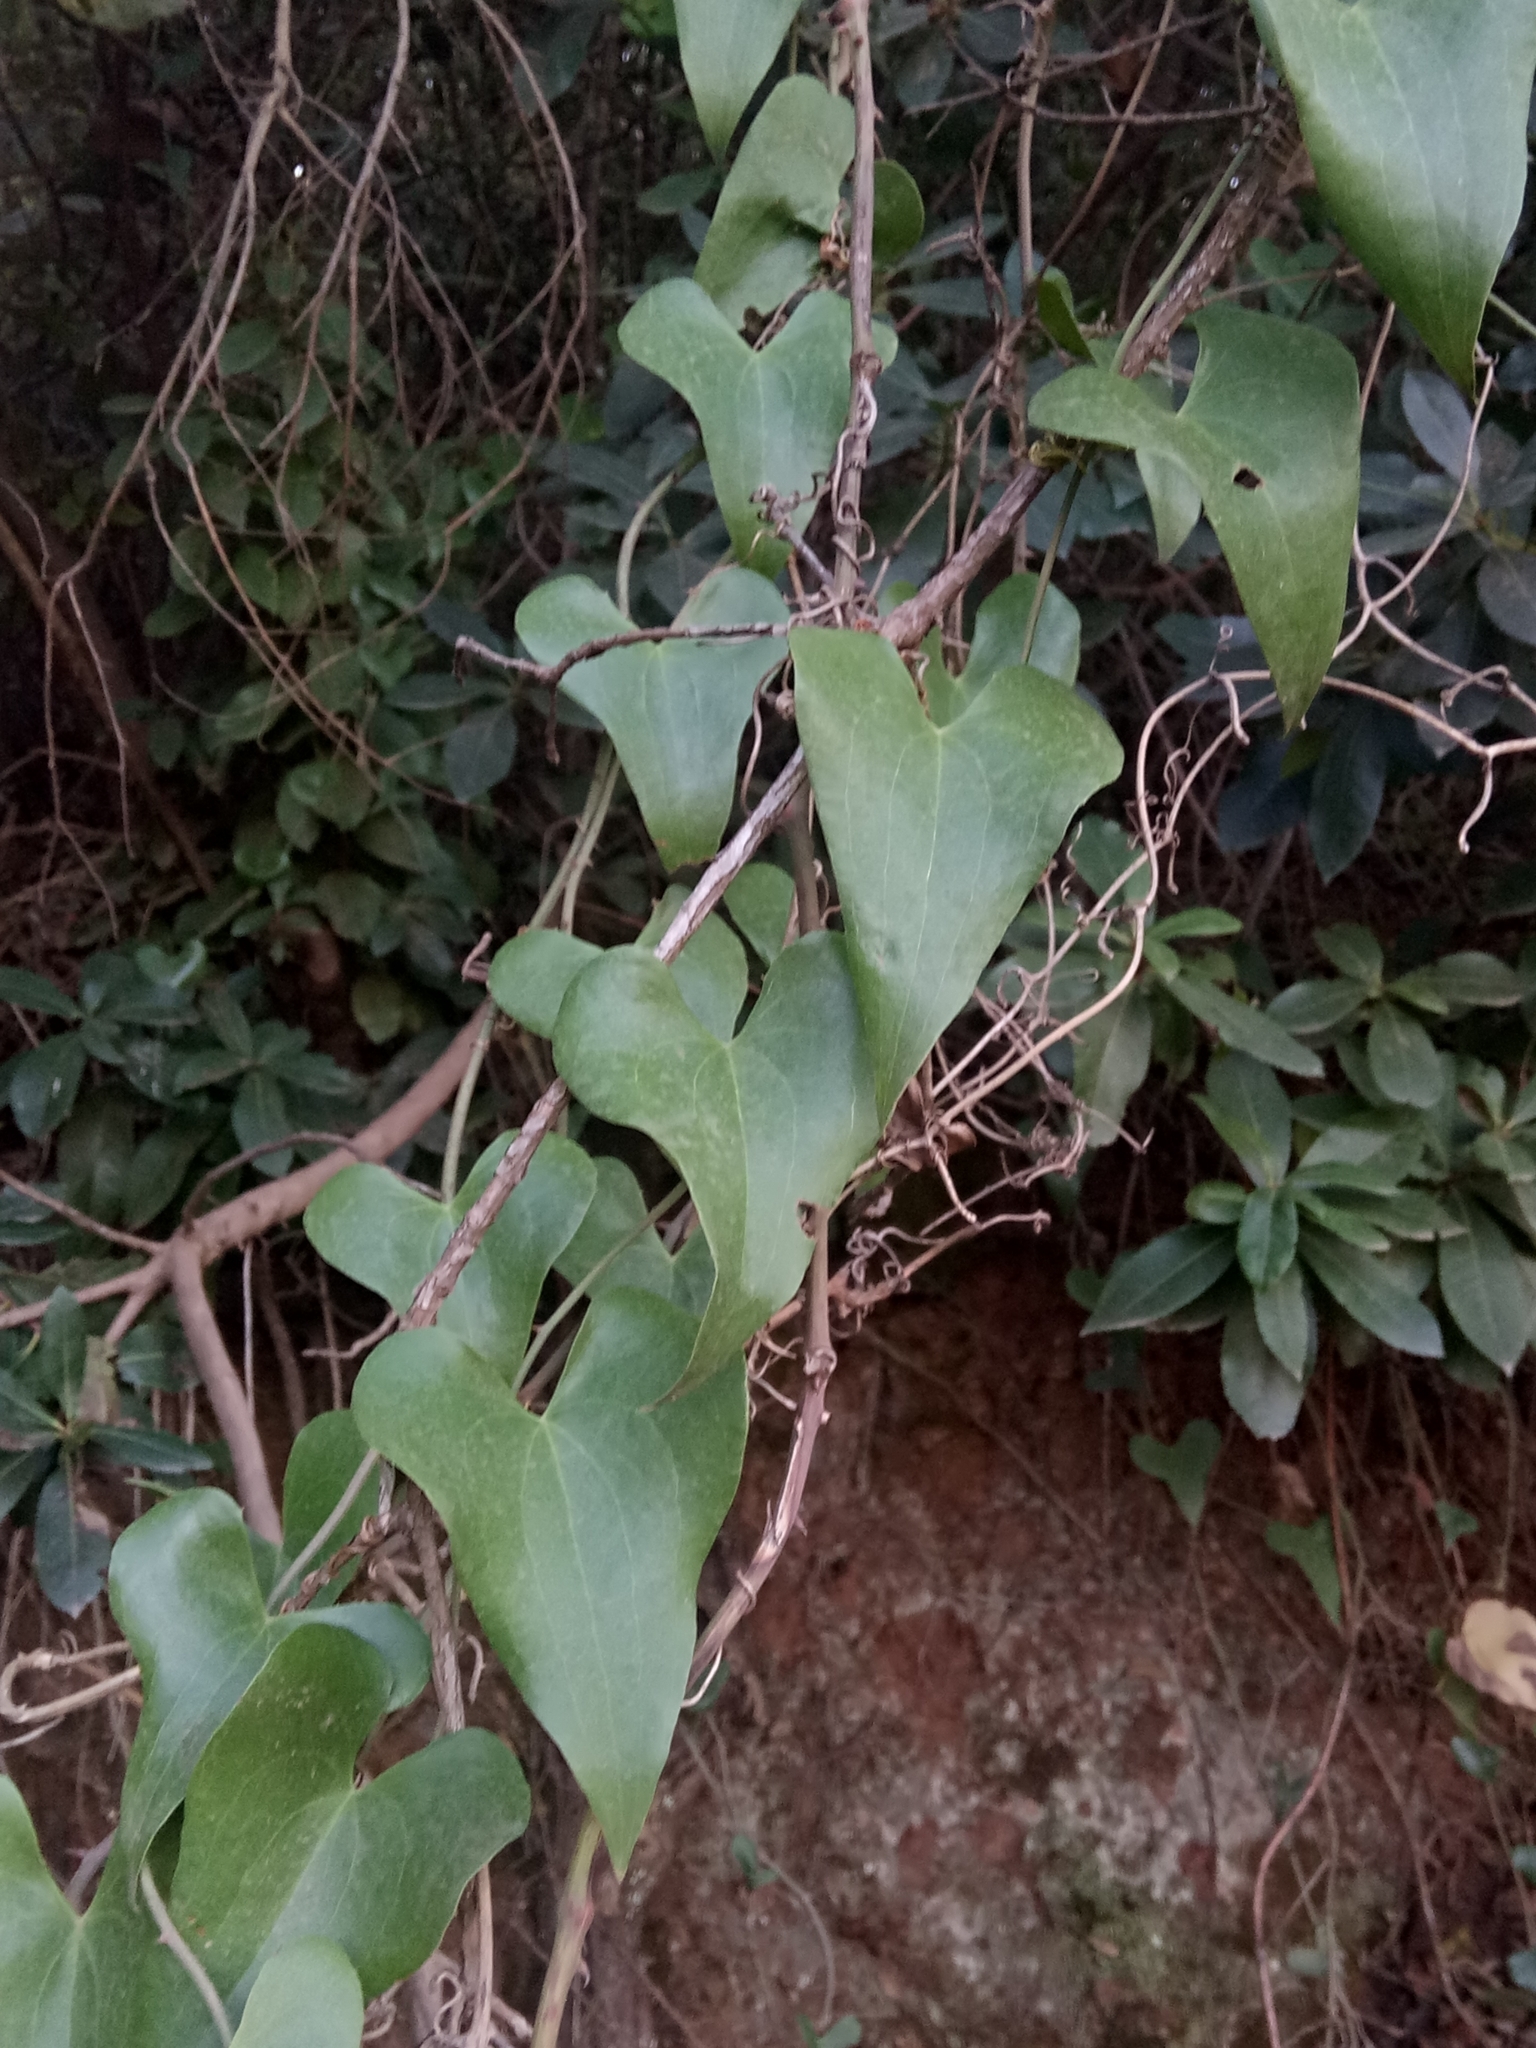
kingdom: Plantae
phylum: Tracheophyta
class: Liliopsida
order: Liliales
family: Smilacaceae
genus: Smilax
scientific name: Smilax aspera
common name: Common smilax
